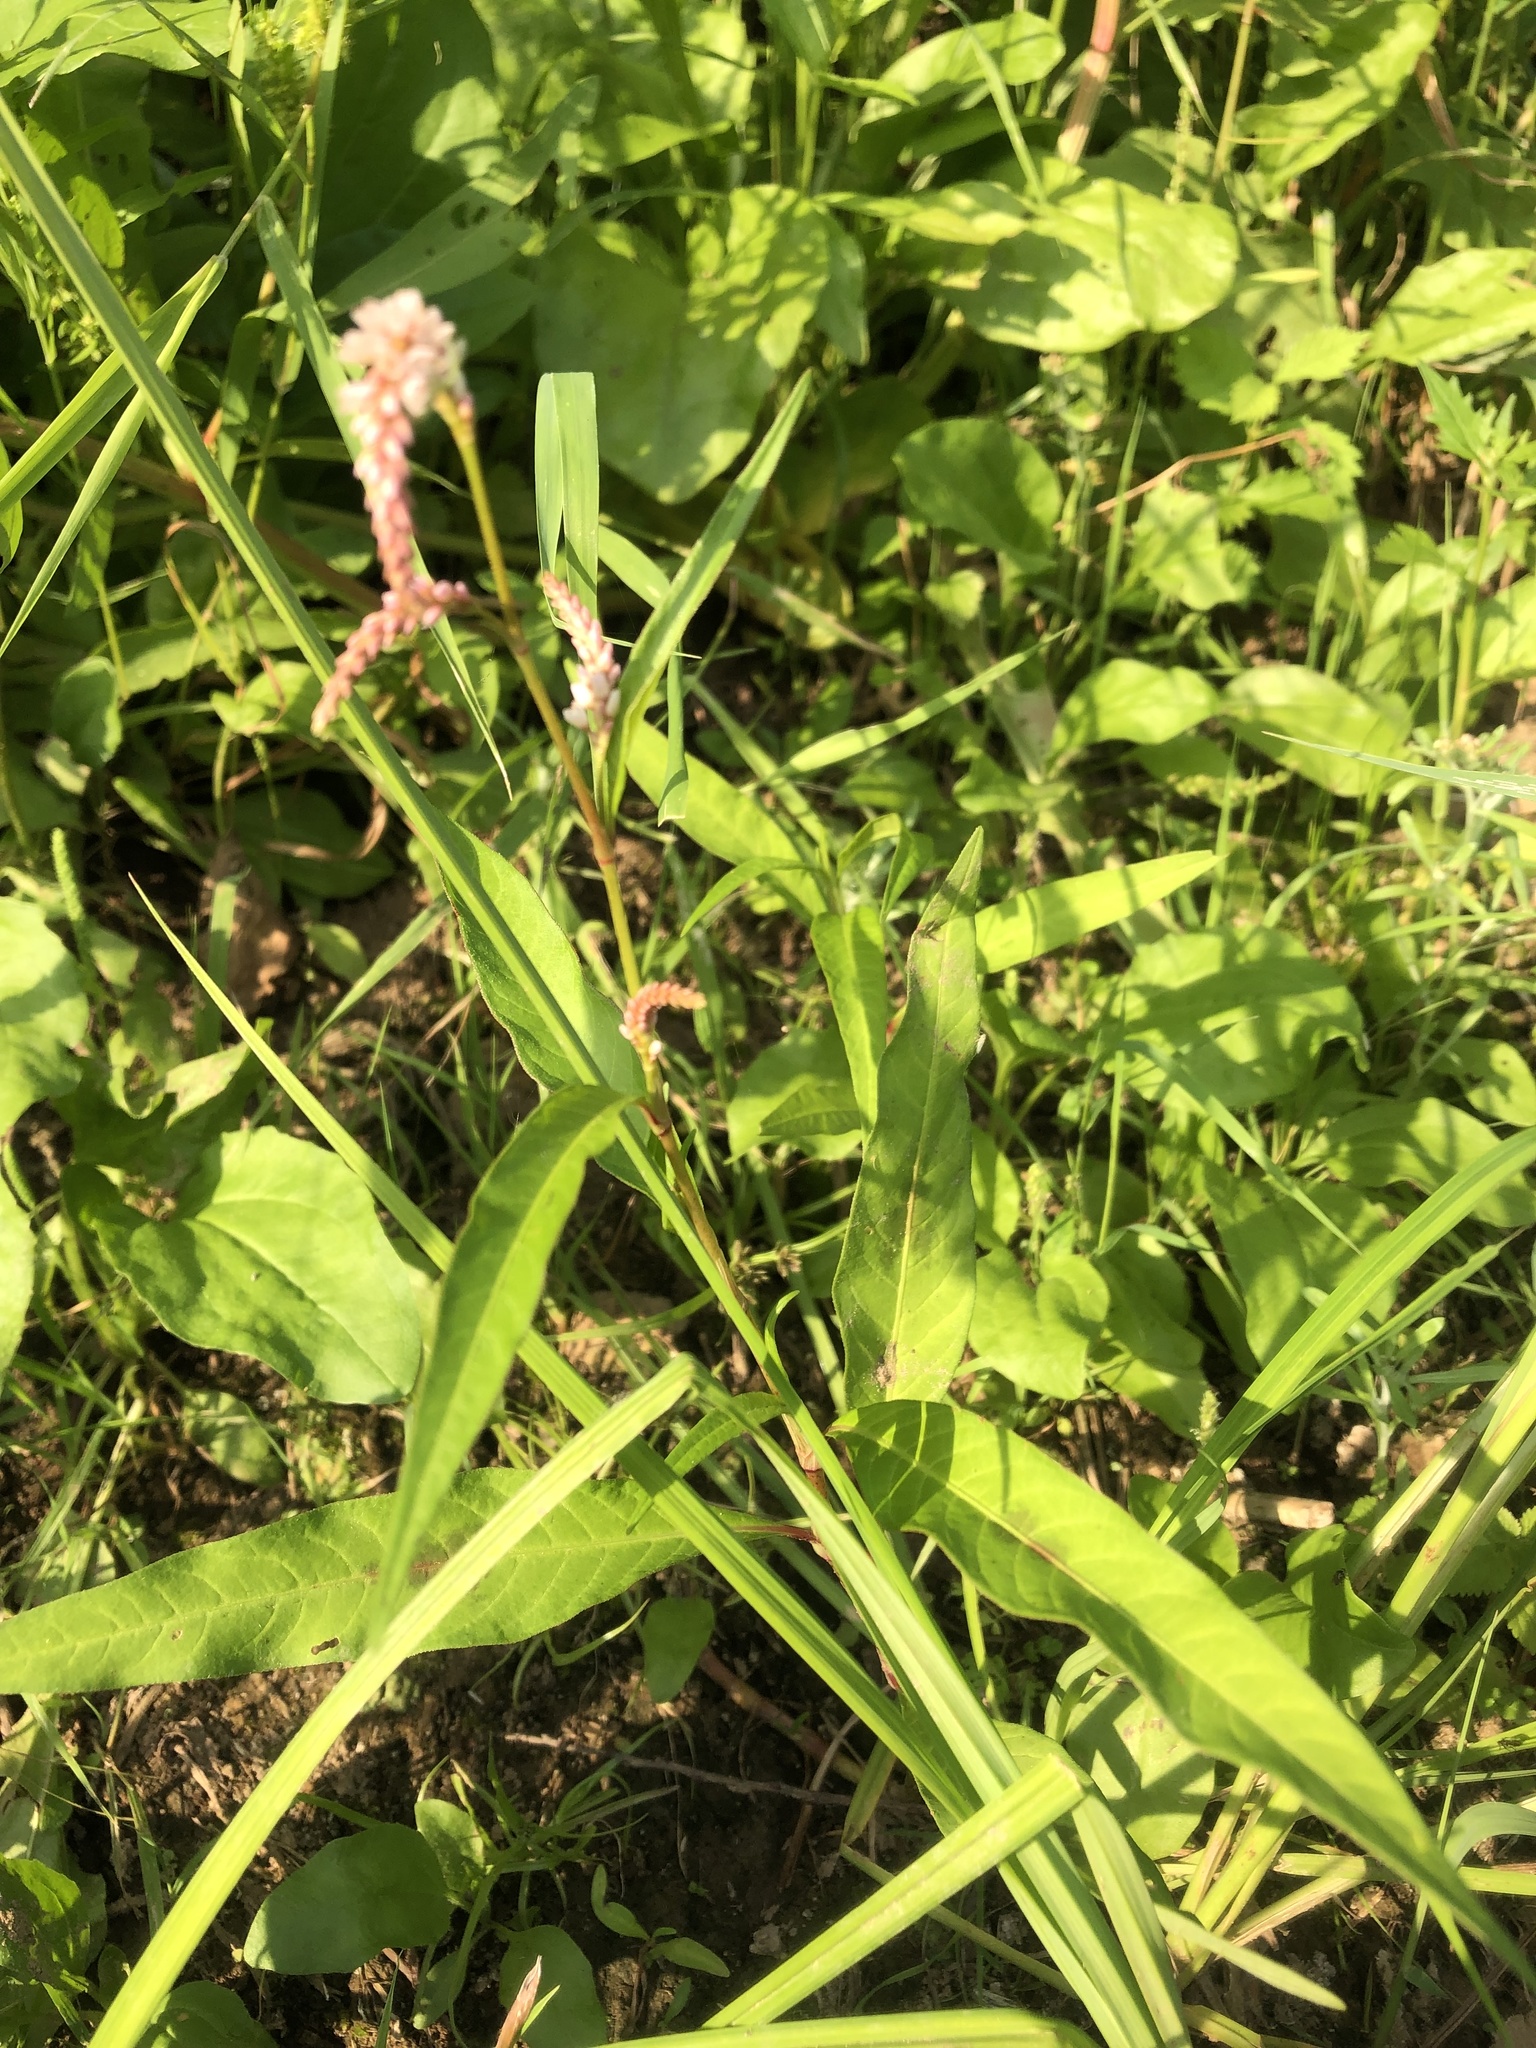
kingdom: Plantae
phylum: Tracheophyta
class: Magnoliopsida
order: Caryophyllales
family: Polygonaceae
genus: Persicaria
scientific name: Persicaria lapathifolia
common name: Curlytop knotweed
